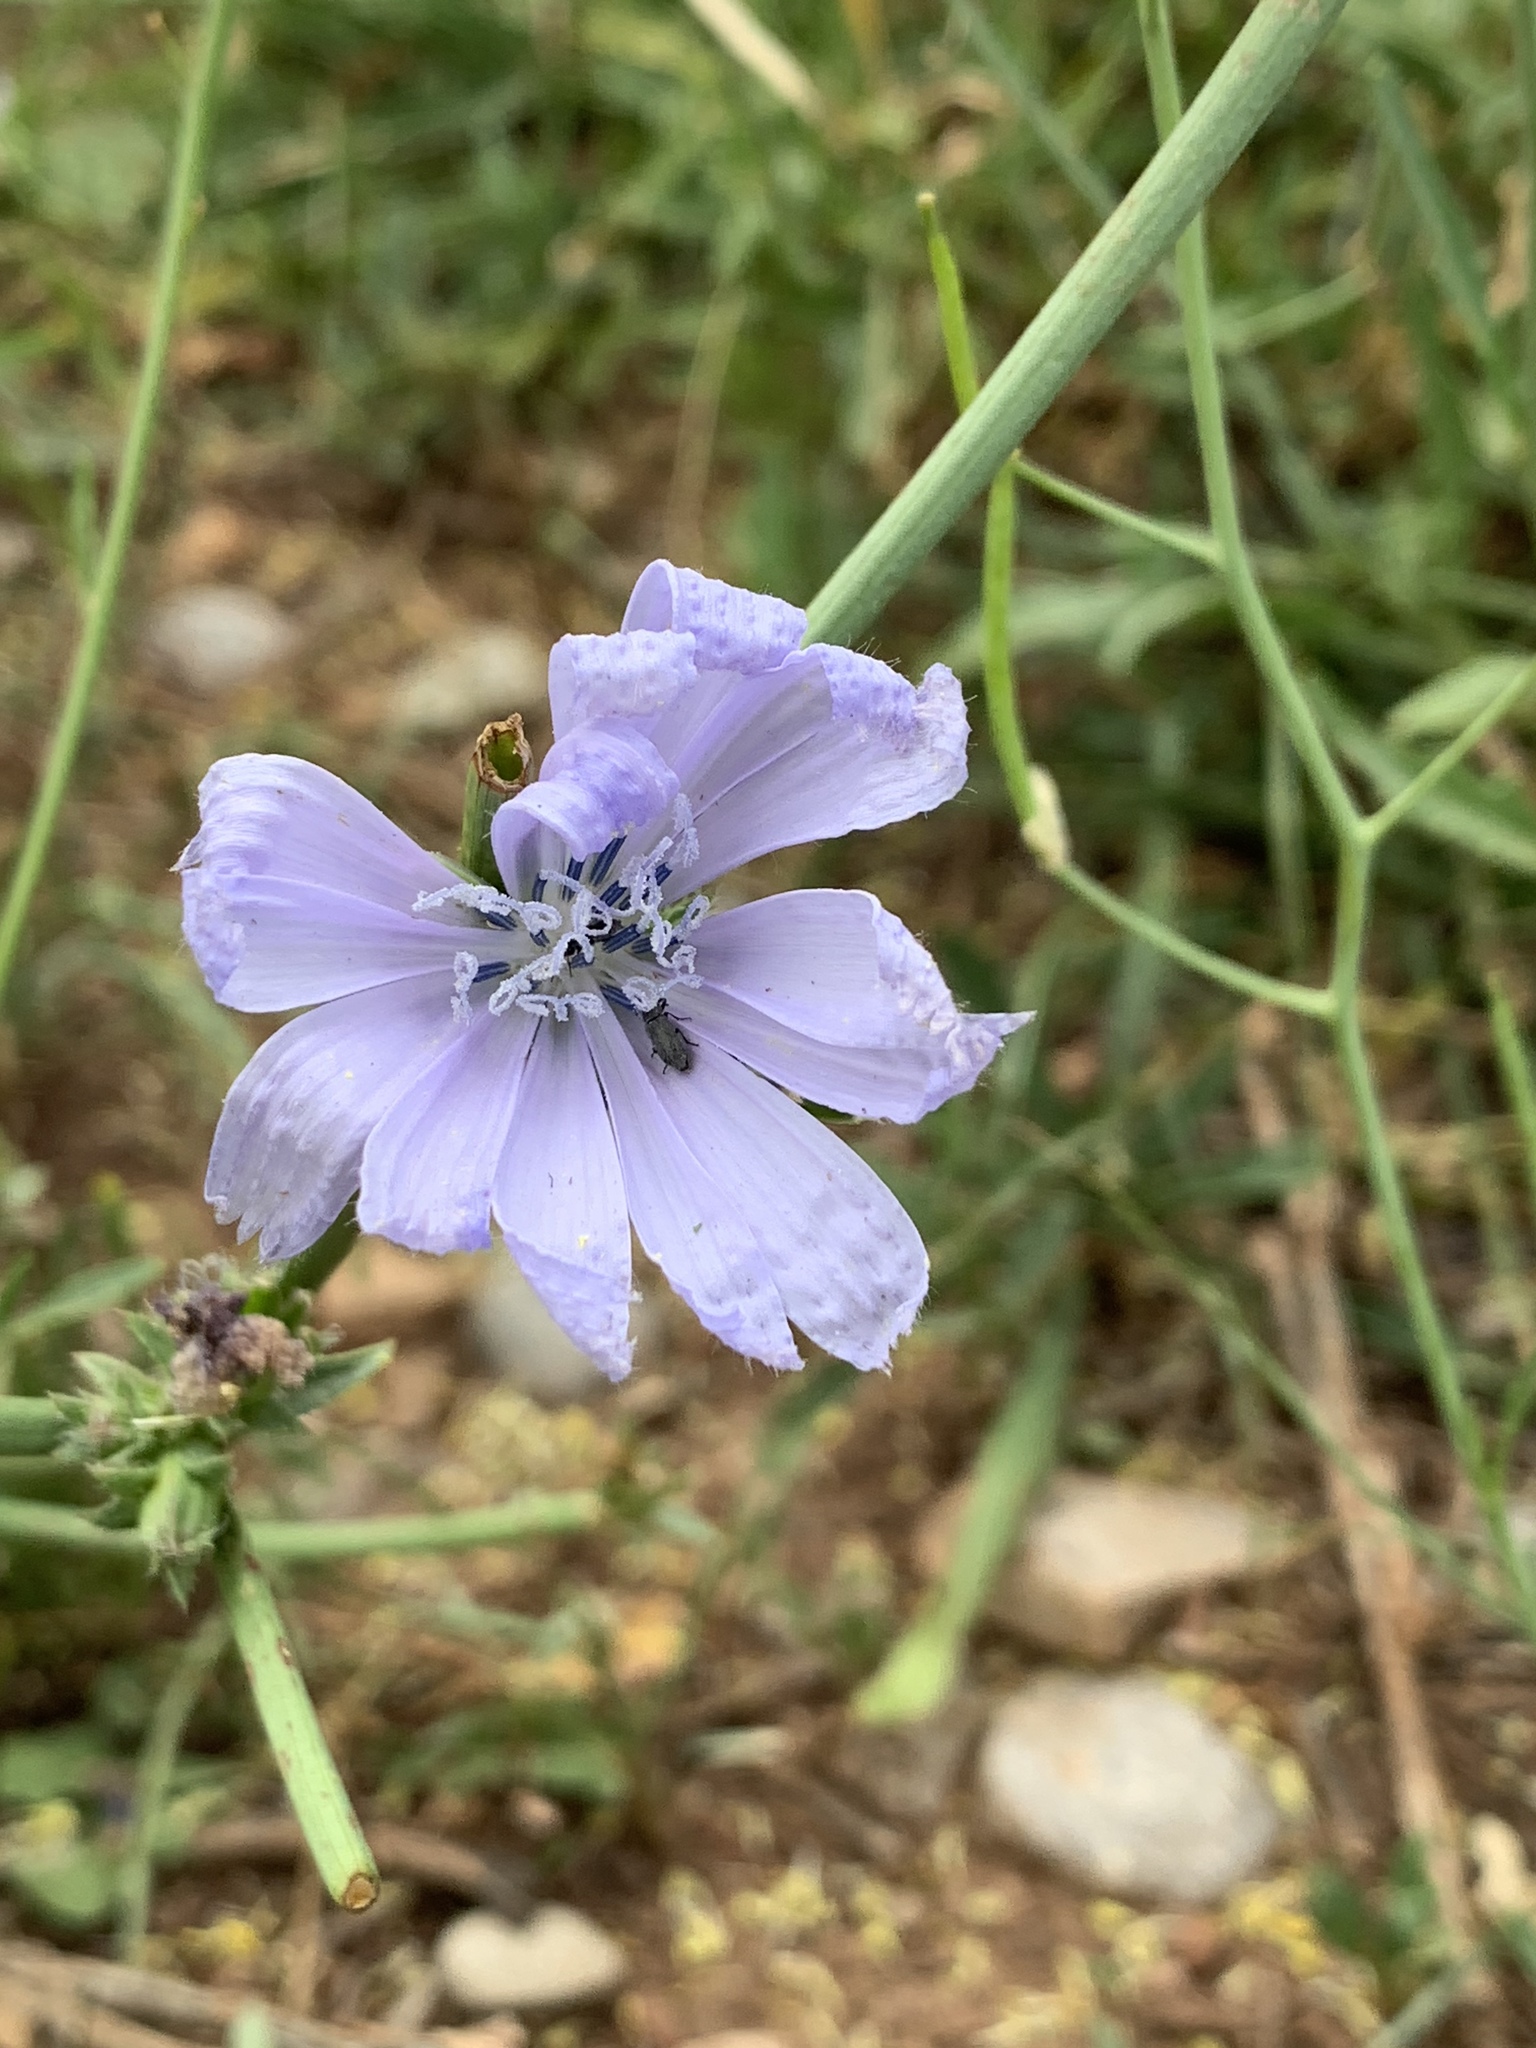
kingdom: Plantae
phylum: Tracheophyta
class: Magnoliopsida
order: Asterales
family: Asteraceae
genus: Cichorium
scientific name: Cichorium intybus
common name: Chicory
